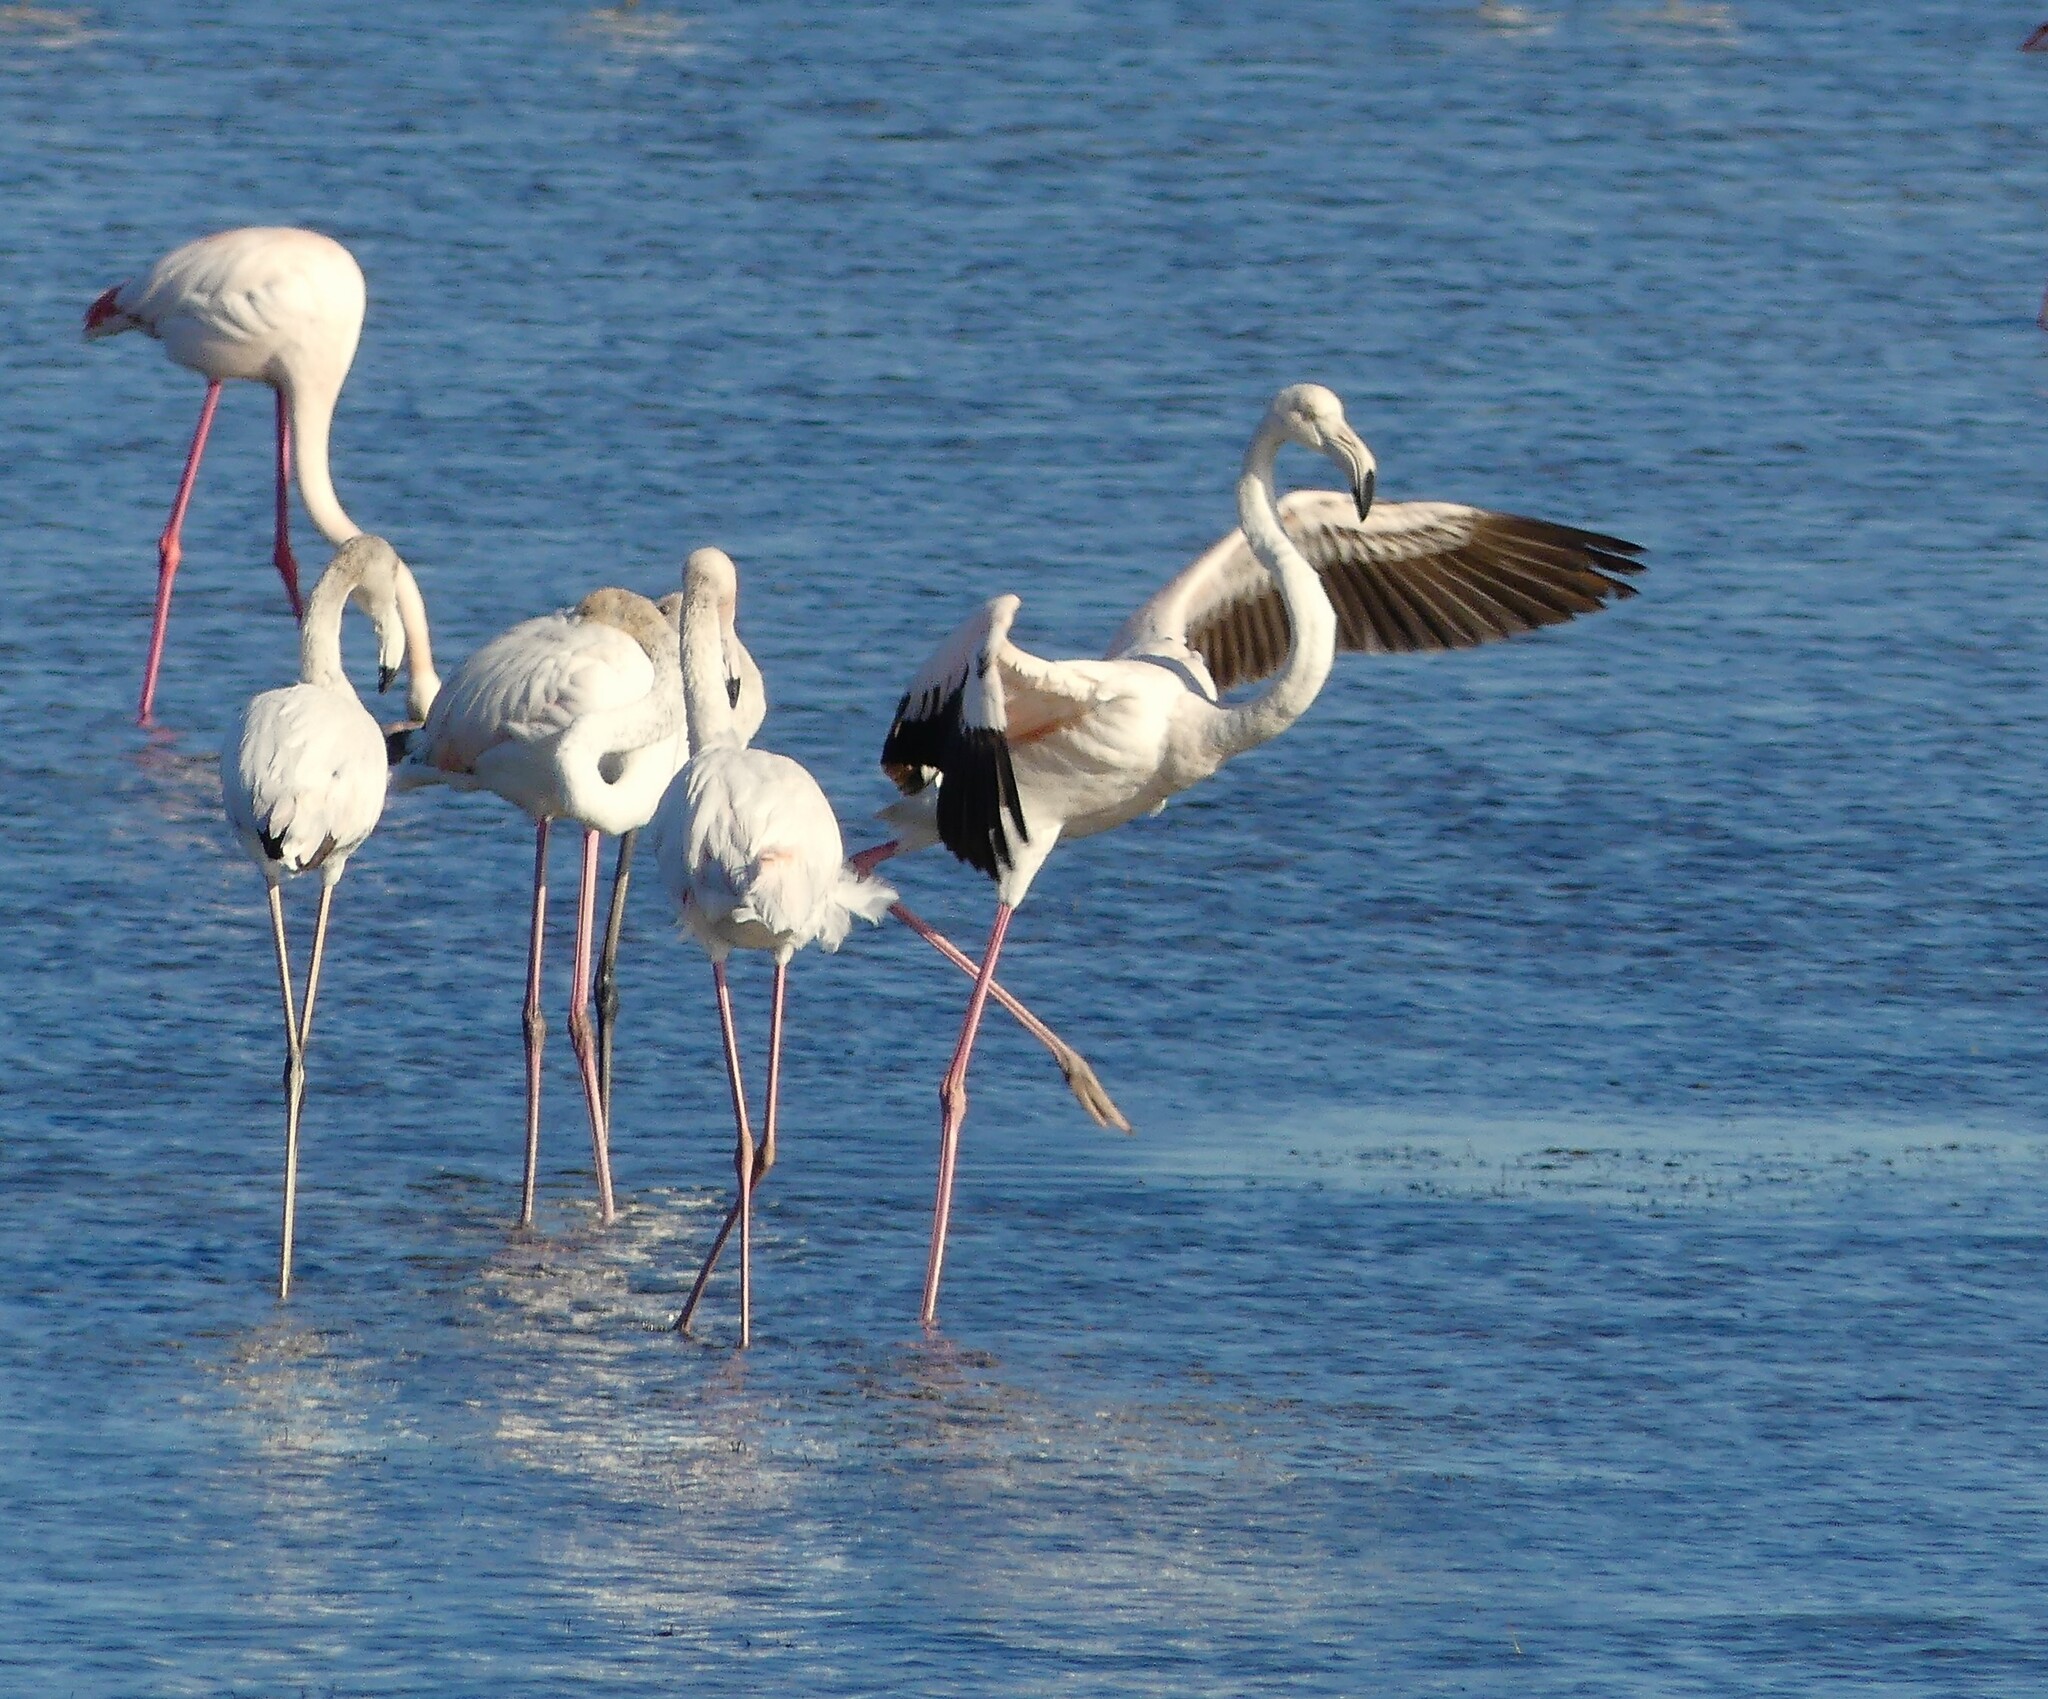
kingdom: Animalia
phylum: Chordata
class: Aves
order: Phoenicopteriformes
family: Phoenicopteridae
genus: Phoenicopterus
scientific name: Phoenicopterus roseus
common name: Greater flamingo
